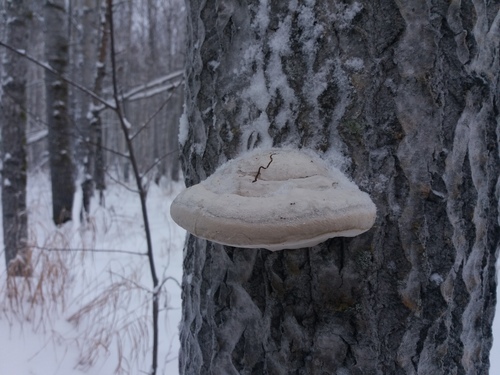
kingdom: Fungi
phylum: Basidiomycota
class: Agaricomycetes
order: Polyporales
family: Polyporaceae
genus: Fomes
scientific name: Fomes fomentarius
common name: Hoof fungus
